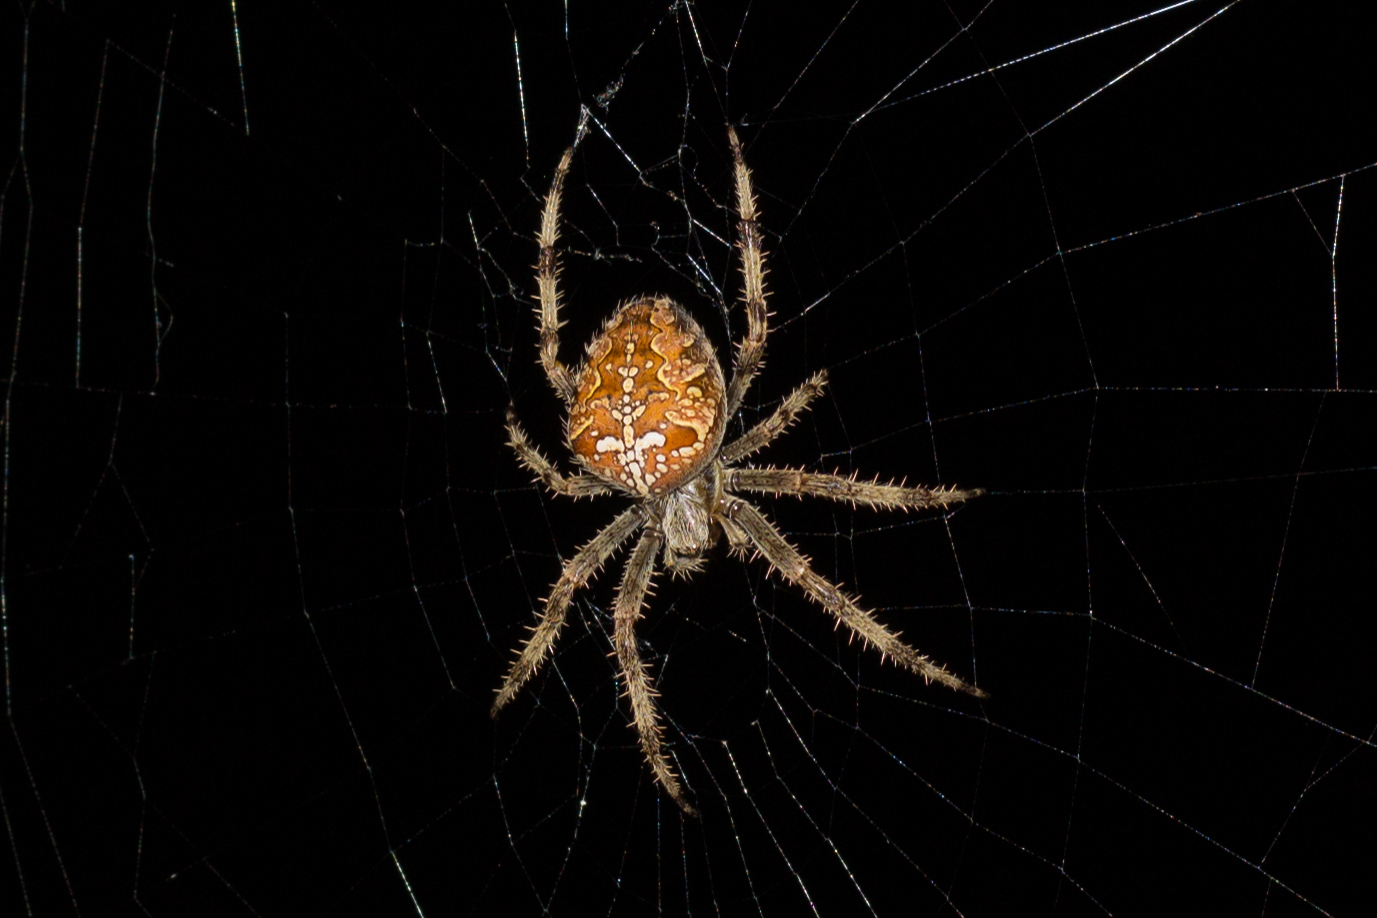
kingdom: Animalia
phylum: Arthropoda
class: Arachnida
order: Araneae
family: Araneidae
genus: Araneus
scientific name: Araneus diadematus
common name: Cross orbweaver
